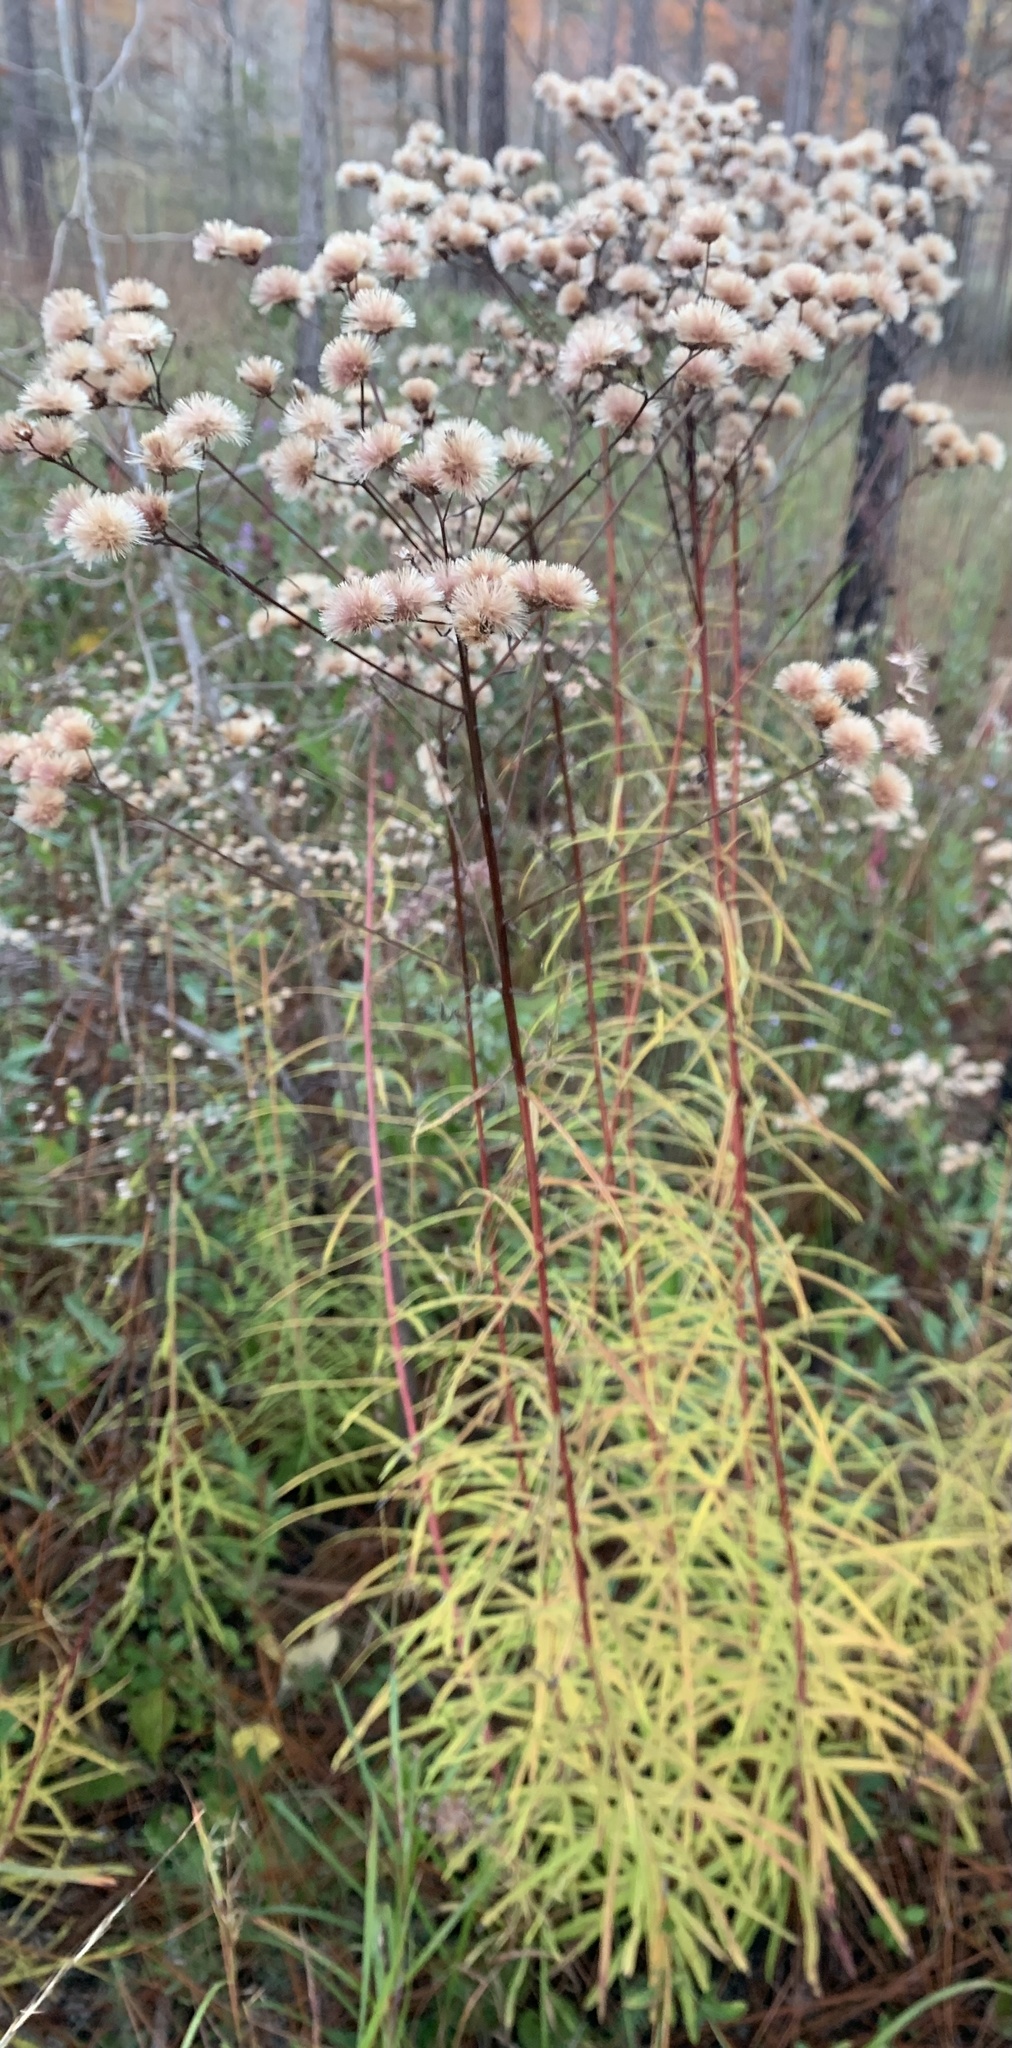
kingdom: Plantae
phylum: Tracheophyta
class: Magnoliopsida
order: Asterales
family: Asteraceae
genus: Vernonia
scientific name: Vernonia angustifolia
